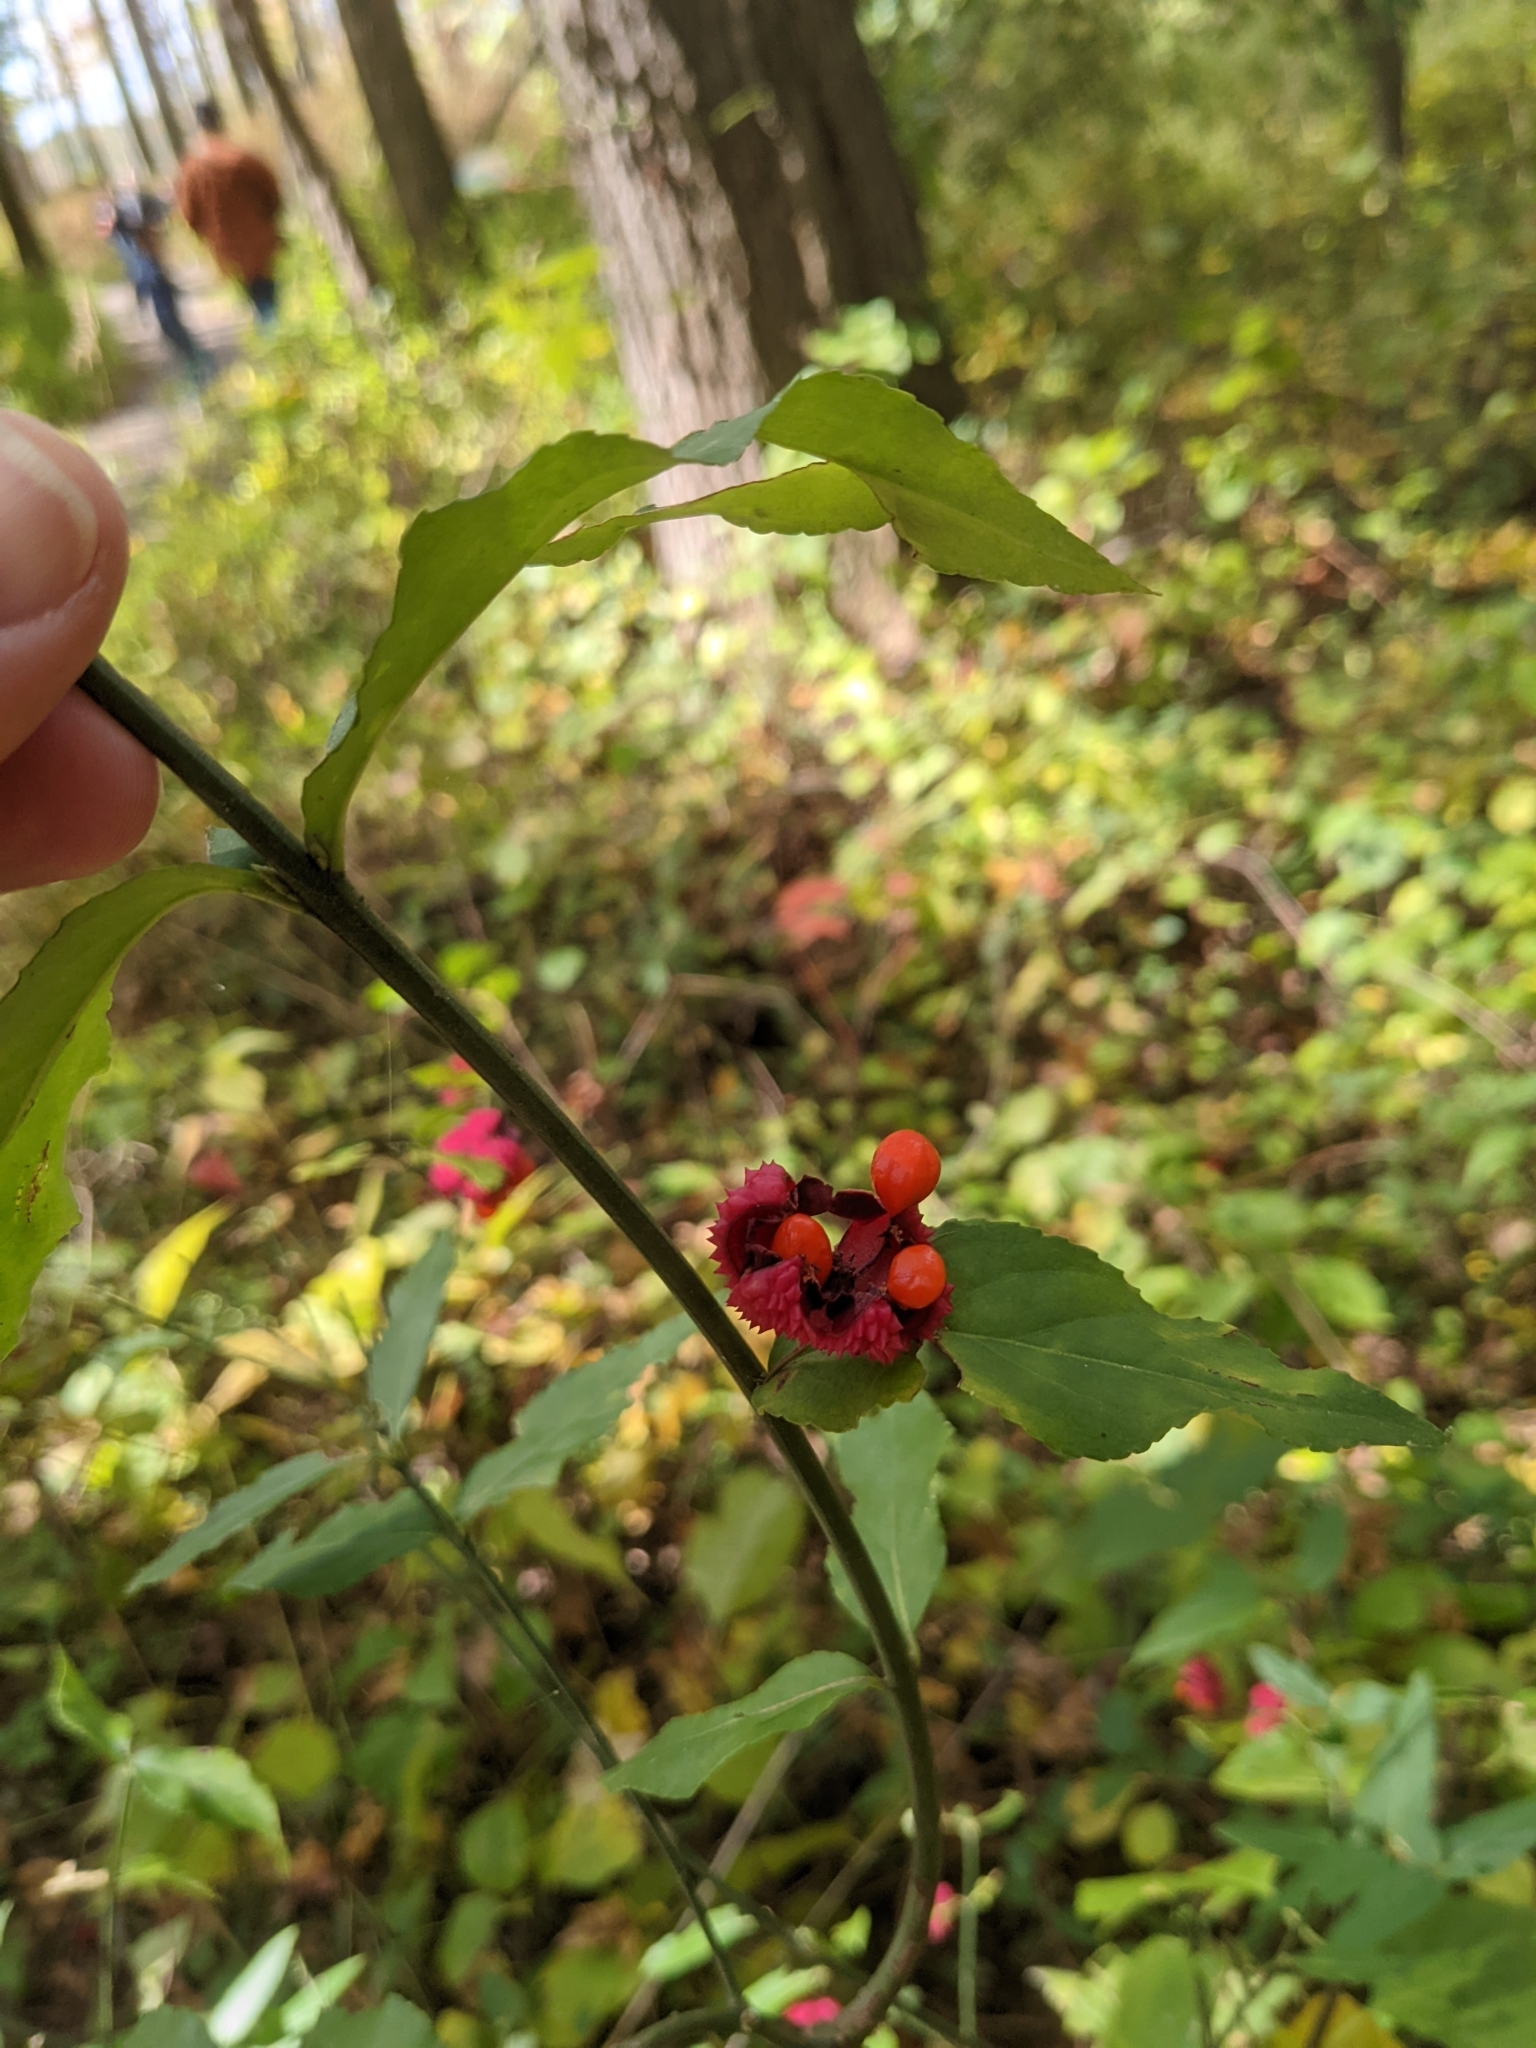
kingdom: Plantae
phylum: Tracheophyta
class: Magnoliopsida
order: Celastrales
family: Celastraceae
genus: Euonymus
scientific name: Euonymus americanus
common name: Bursting-heart
